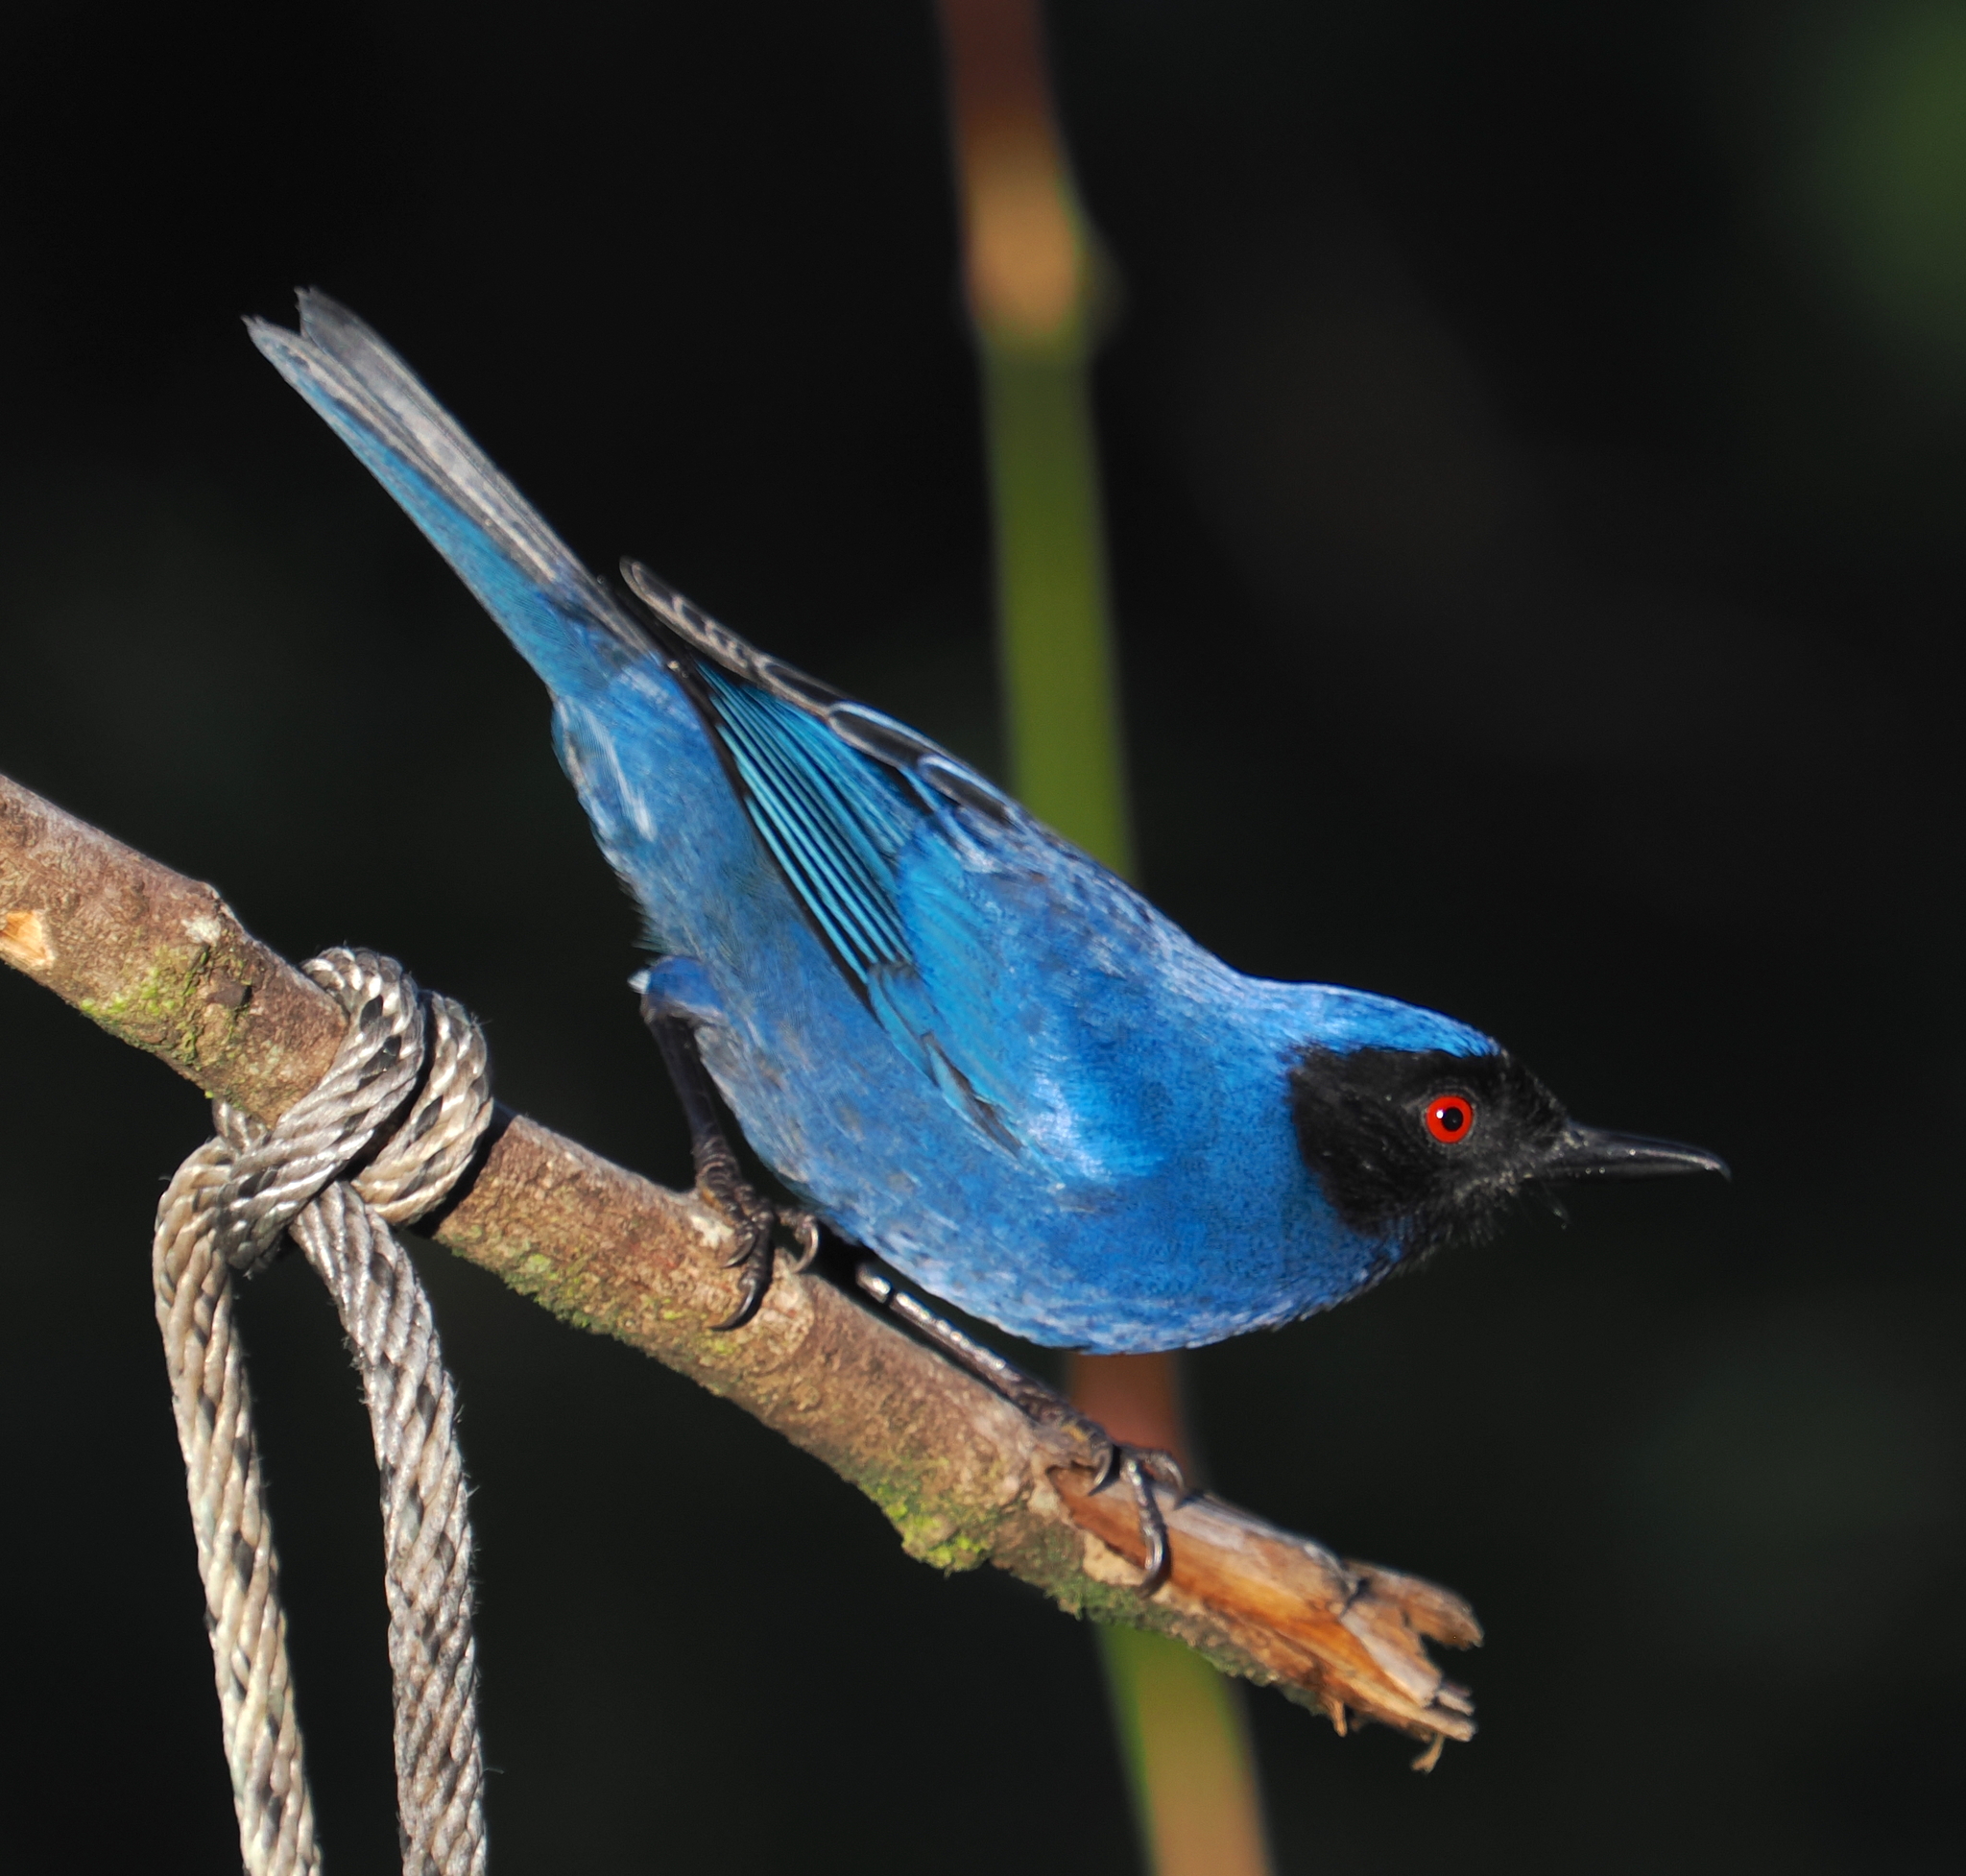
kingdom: Animalia
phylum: Chordata
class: Aves
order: Passeriformes
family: Thraupidae
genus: Diglossa
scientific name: Diglossa cyanea
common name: Masked flowerpiercer
